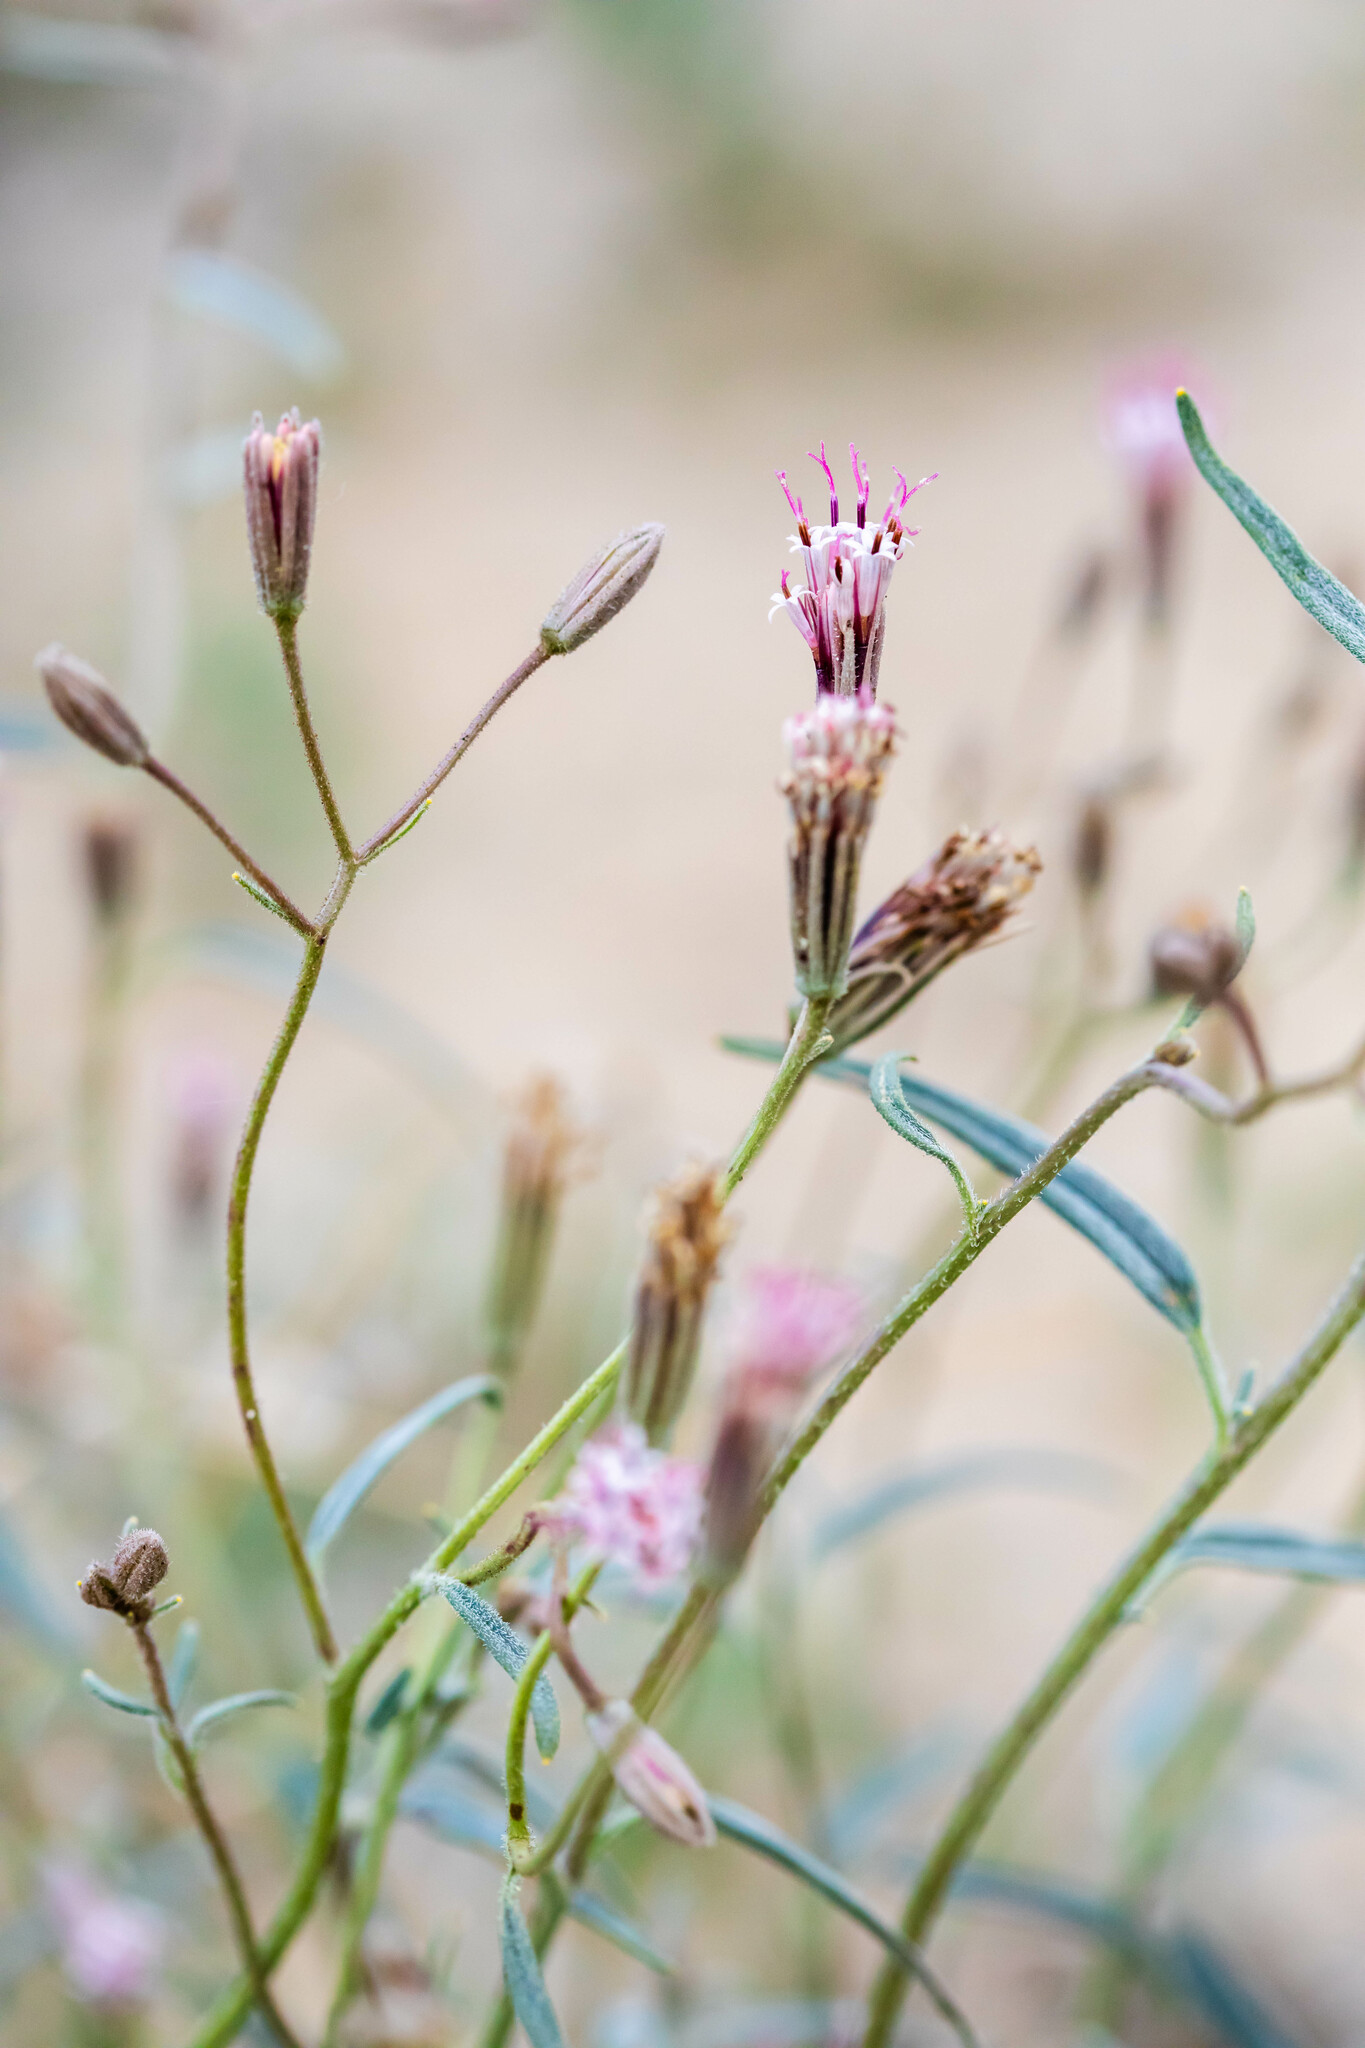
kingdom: Plantae
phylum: Tracheophyta
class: Magnoliopsida
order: Asterales
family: Asteraceae
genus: Palafoxia
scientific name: Palafoxia arida
